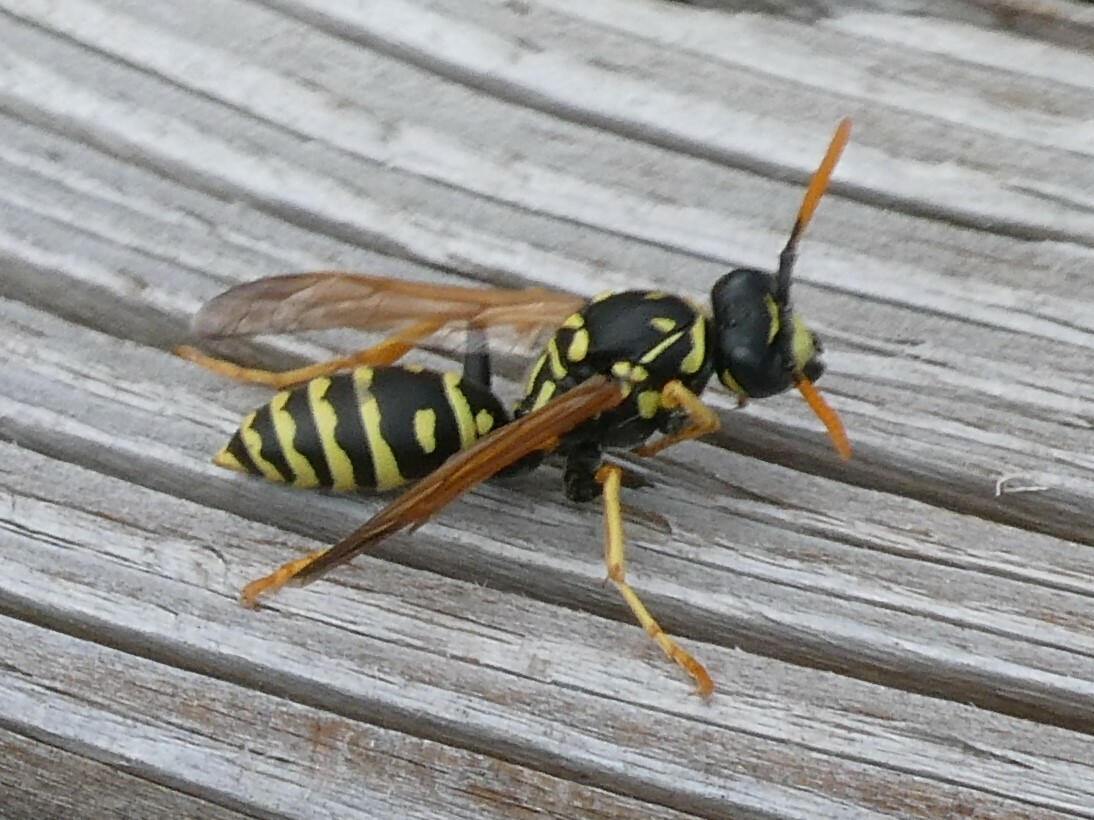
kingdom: Animalia
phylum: Arthropoda
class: Insecta
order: Hymenoptera
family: Eumenidae
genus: Polistes
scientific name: Polistes dominula
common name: Paper wasp
